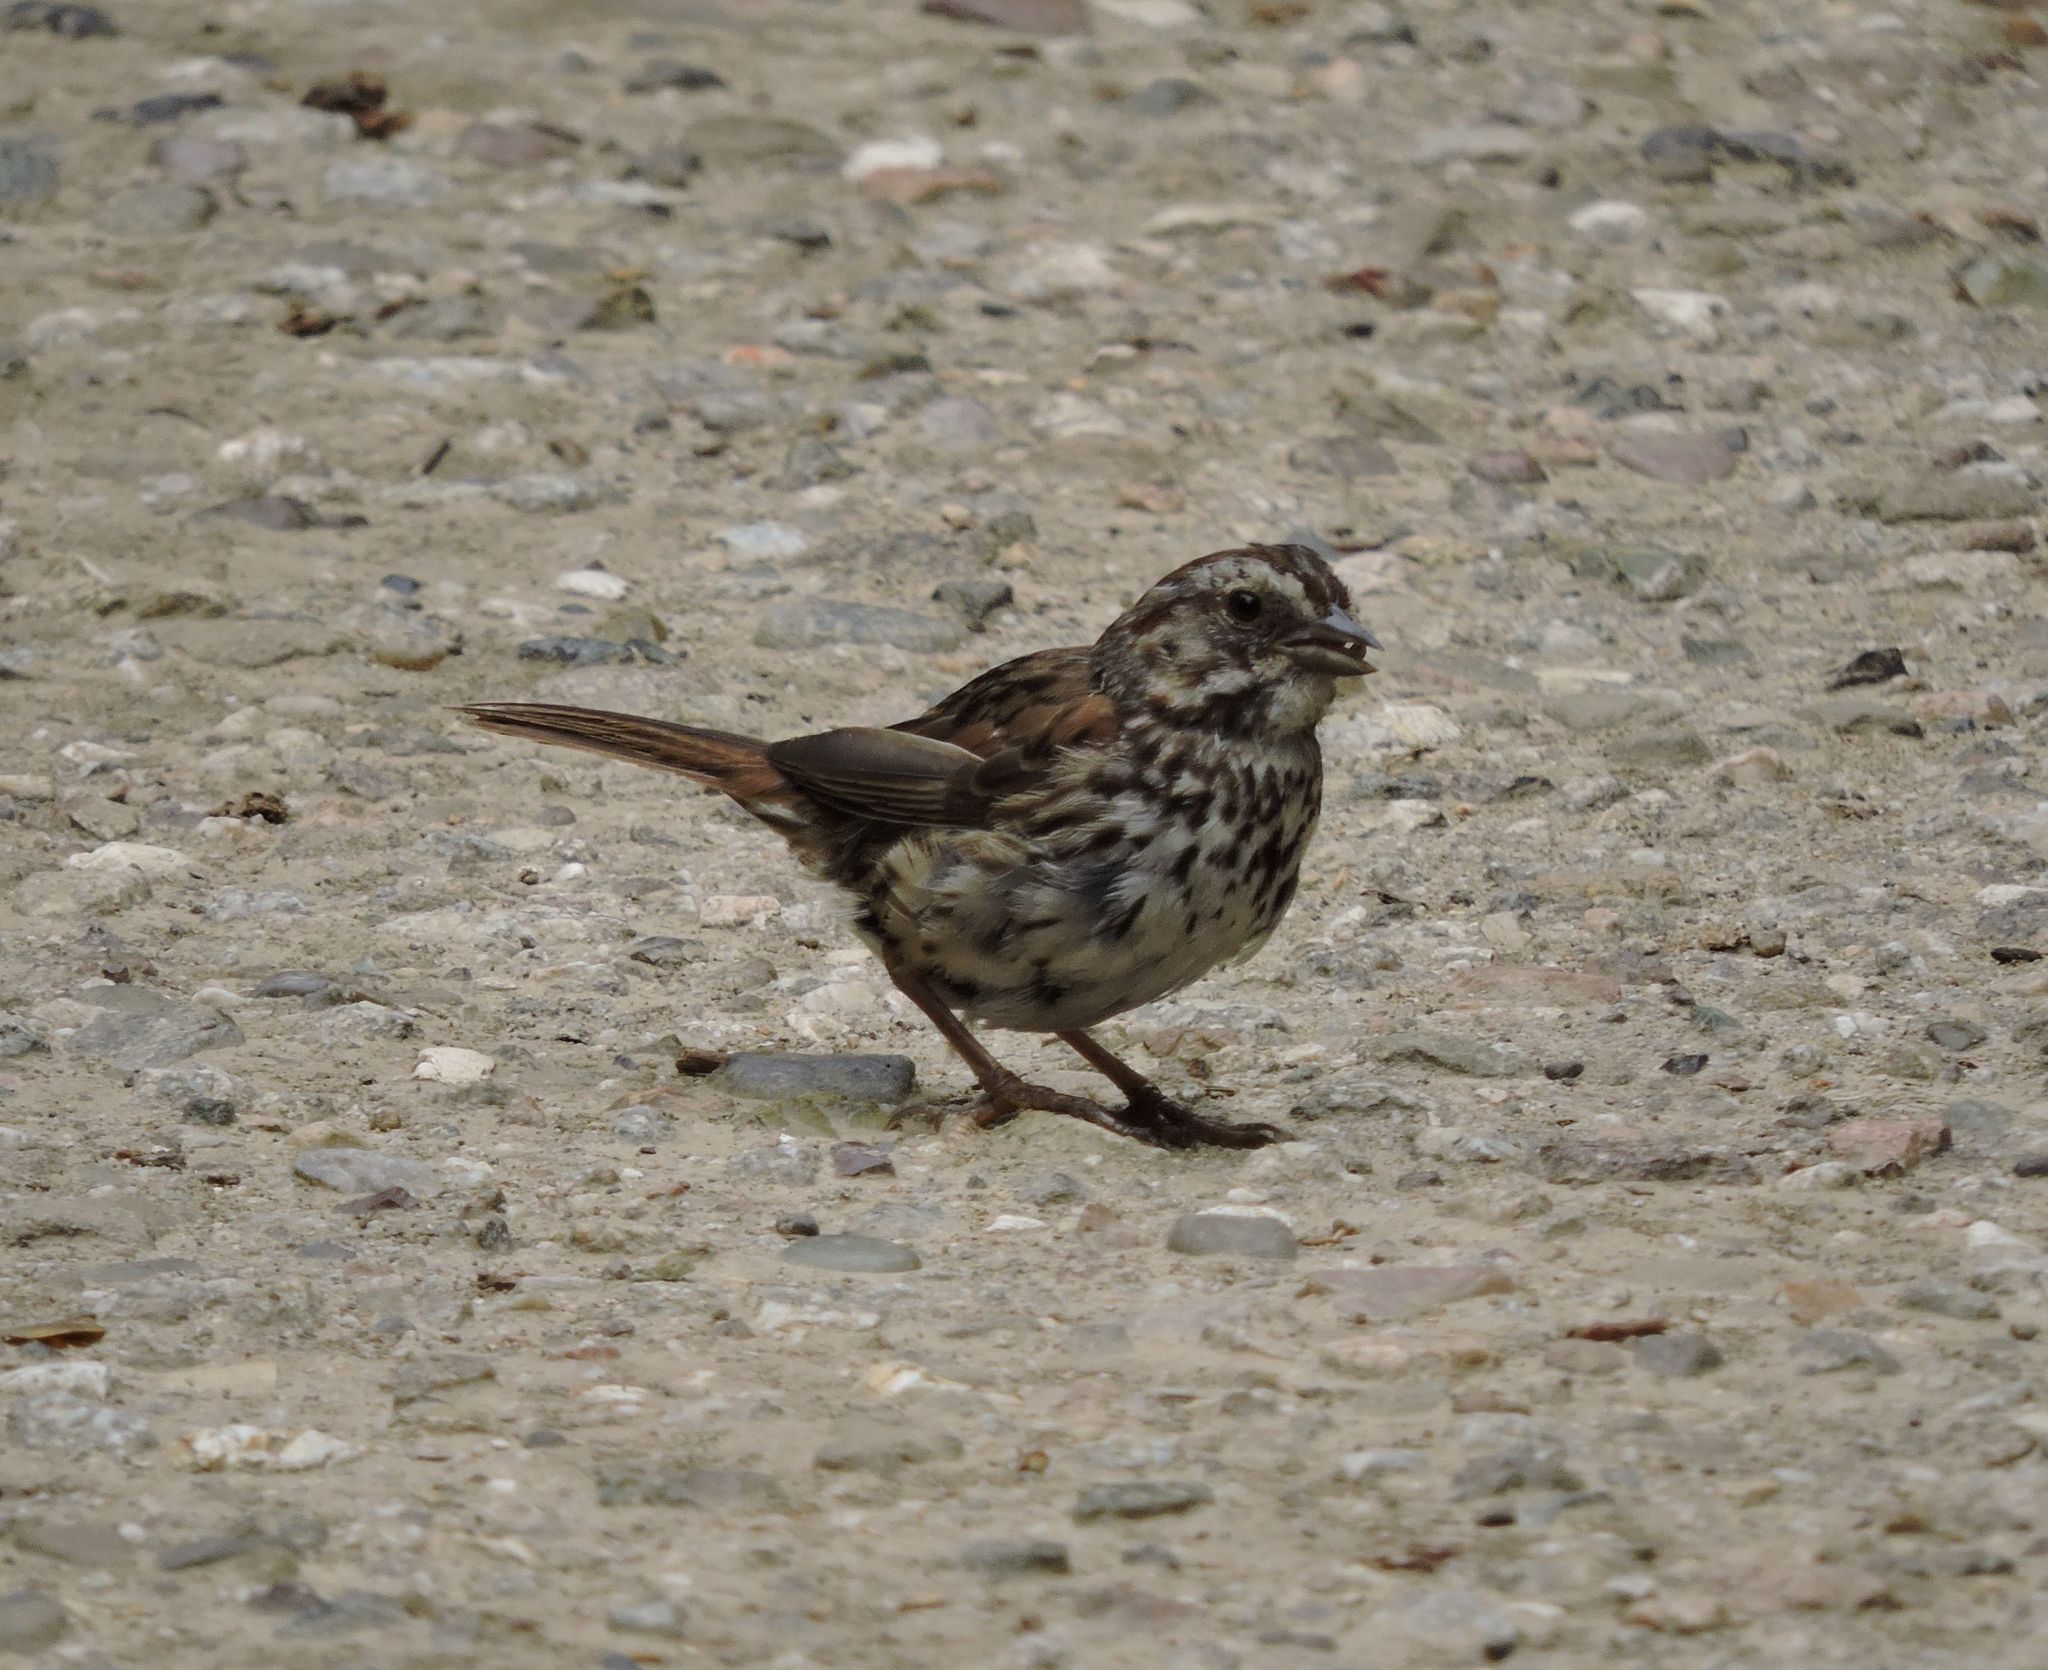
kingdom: Animalia
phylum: Chordata
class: Aves
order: Passeriformes
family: Passerellidae
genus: Melospiza
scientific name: Melospiza melodia
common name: Song sparrow
